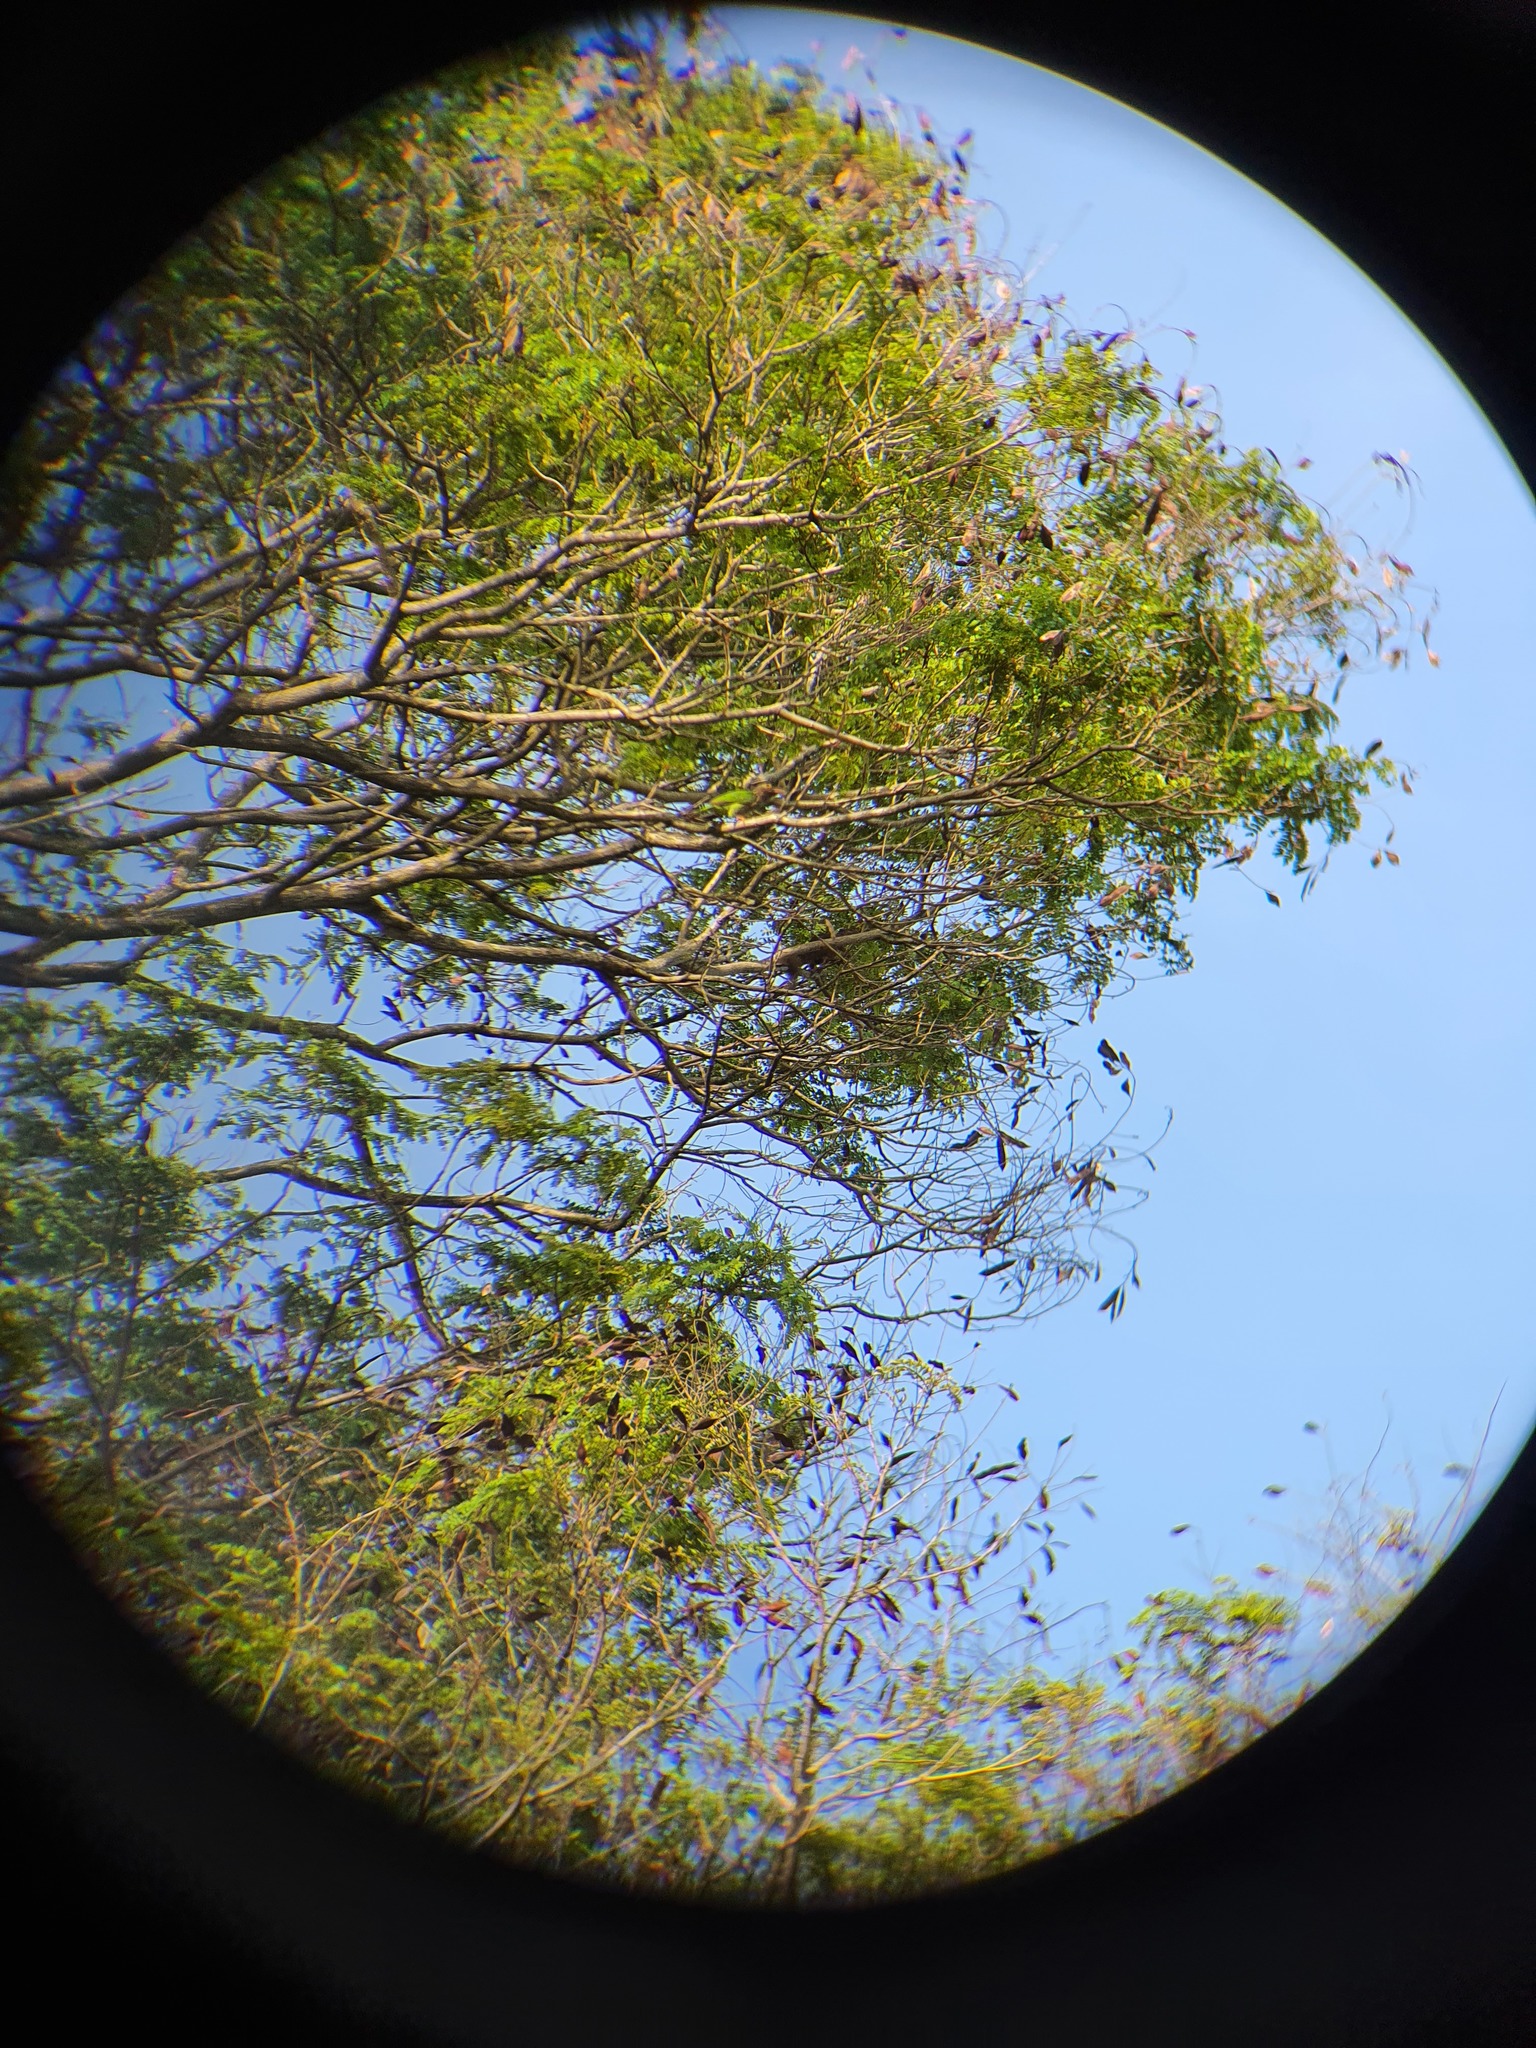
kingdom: Animalia
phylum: Chordata
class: Aves
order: Piciformes
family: Megalaimidae
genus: Psilopogon
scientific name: Psilopogon lineatus
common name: Lineated barbet
